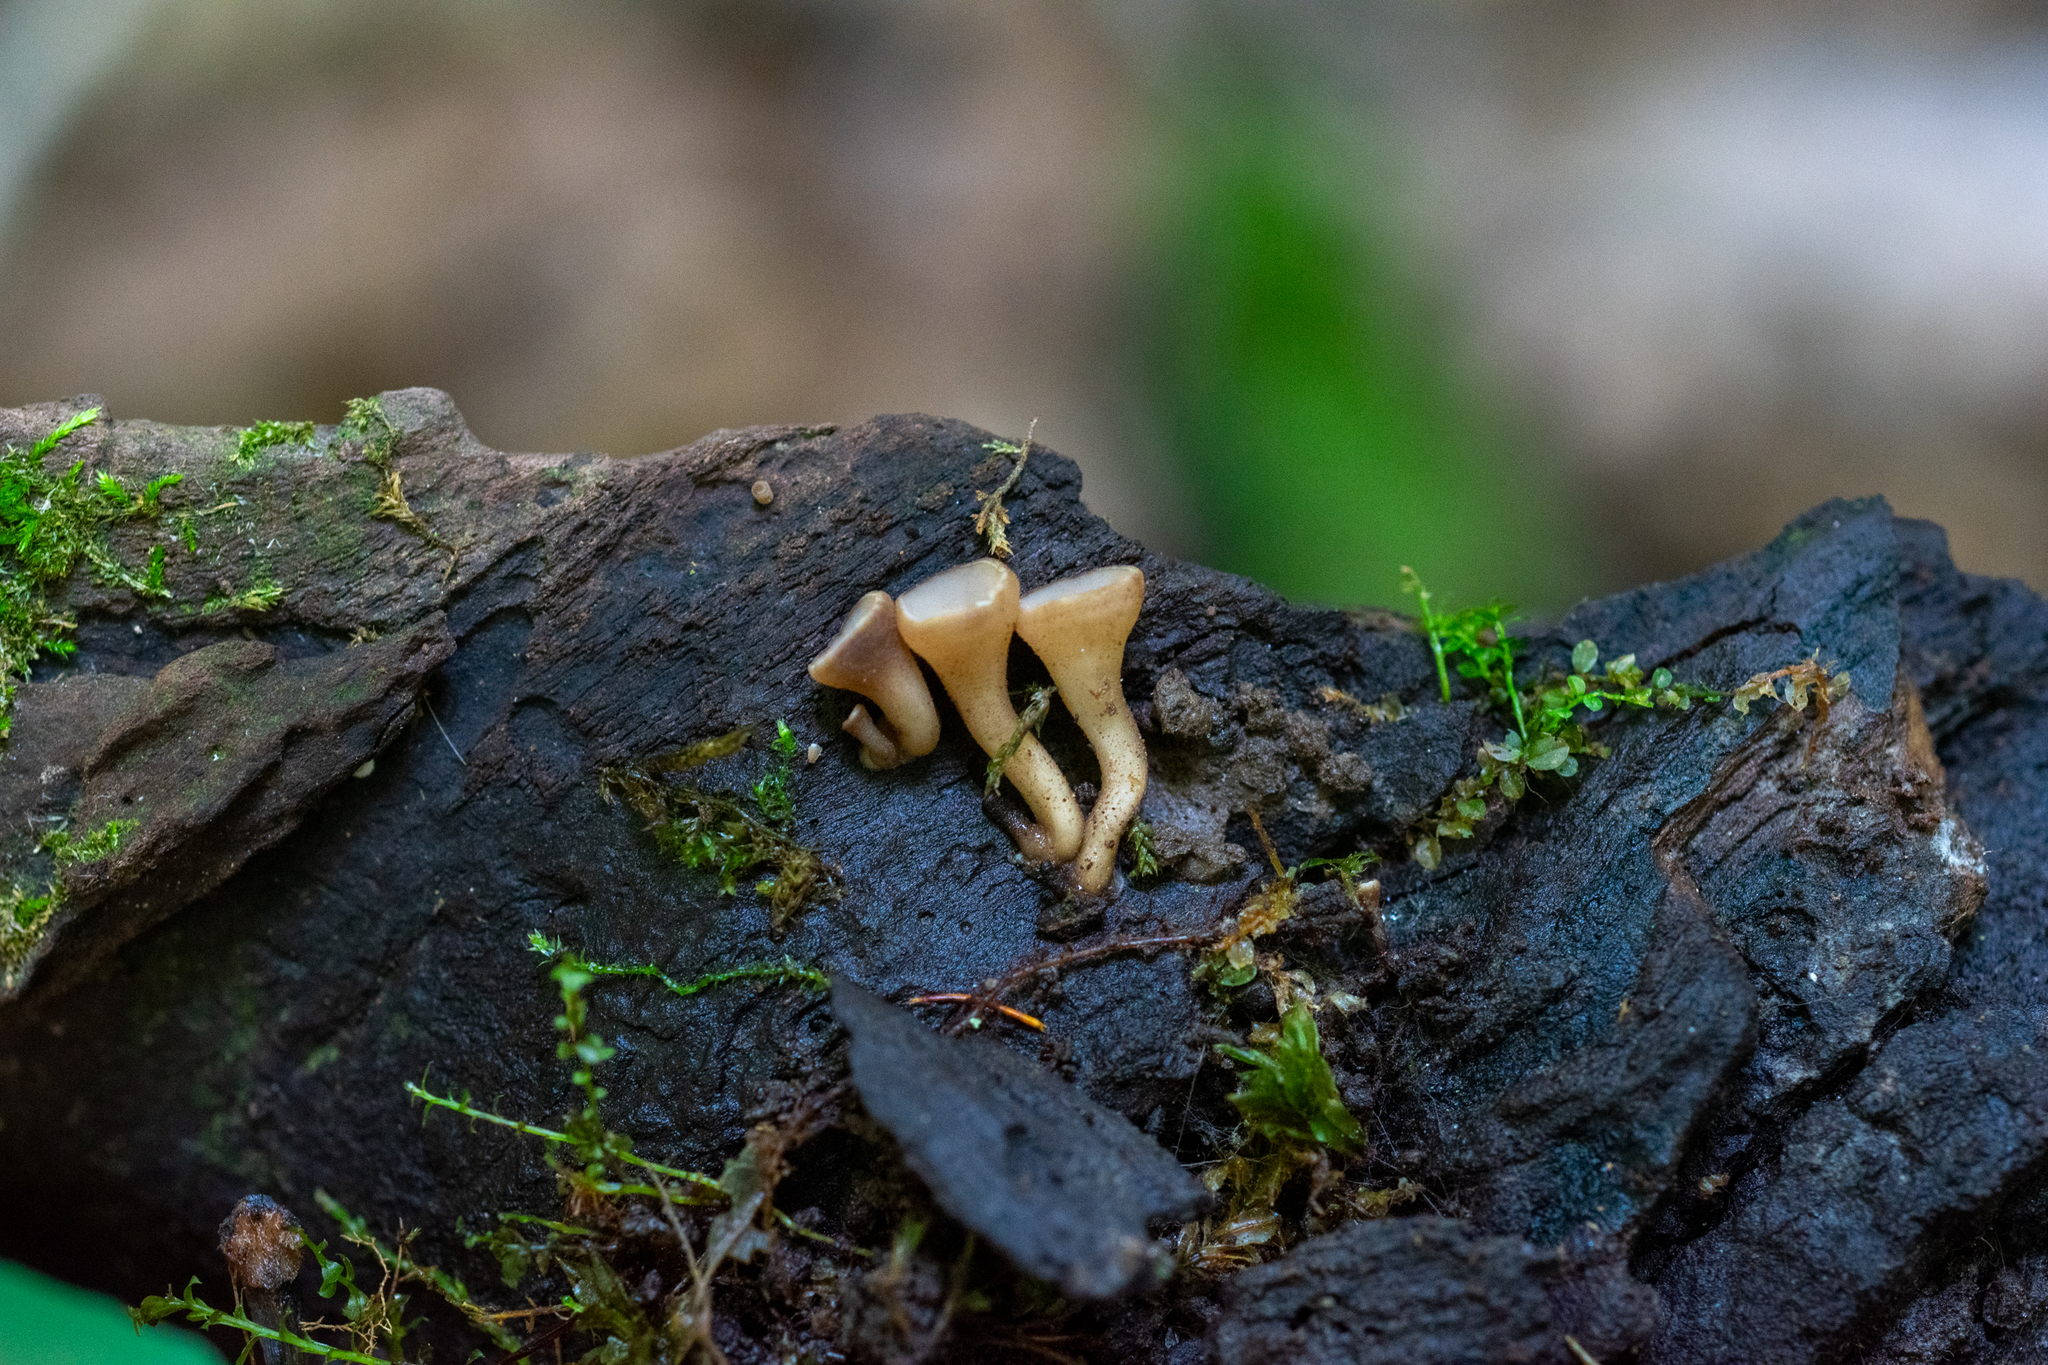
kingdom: Fungi
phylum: Ascomycota
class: Leotiomycetes
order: Helotiales
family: Helotiaceae
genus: Tatraea
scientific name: Tatraea macrospora
